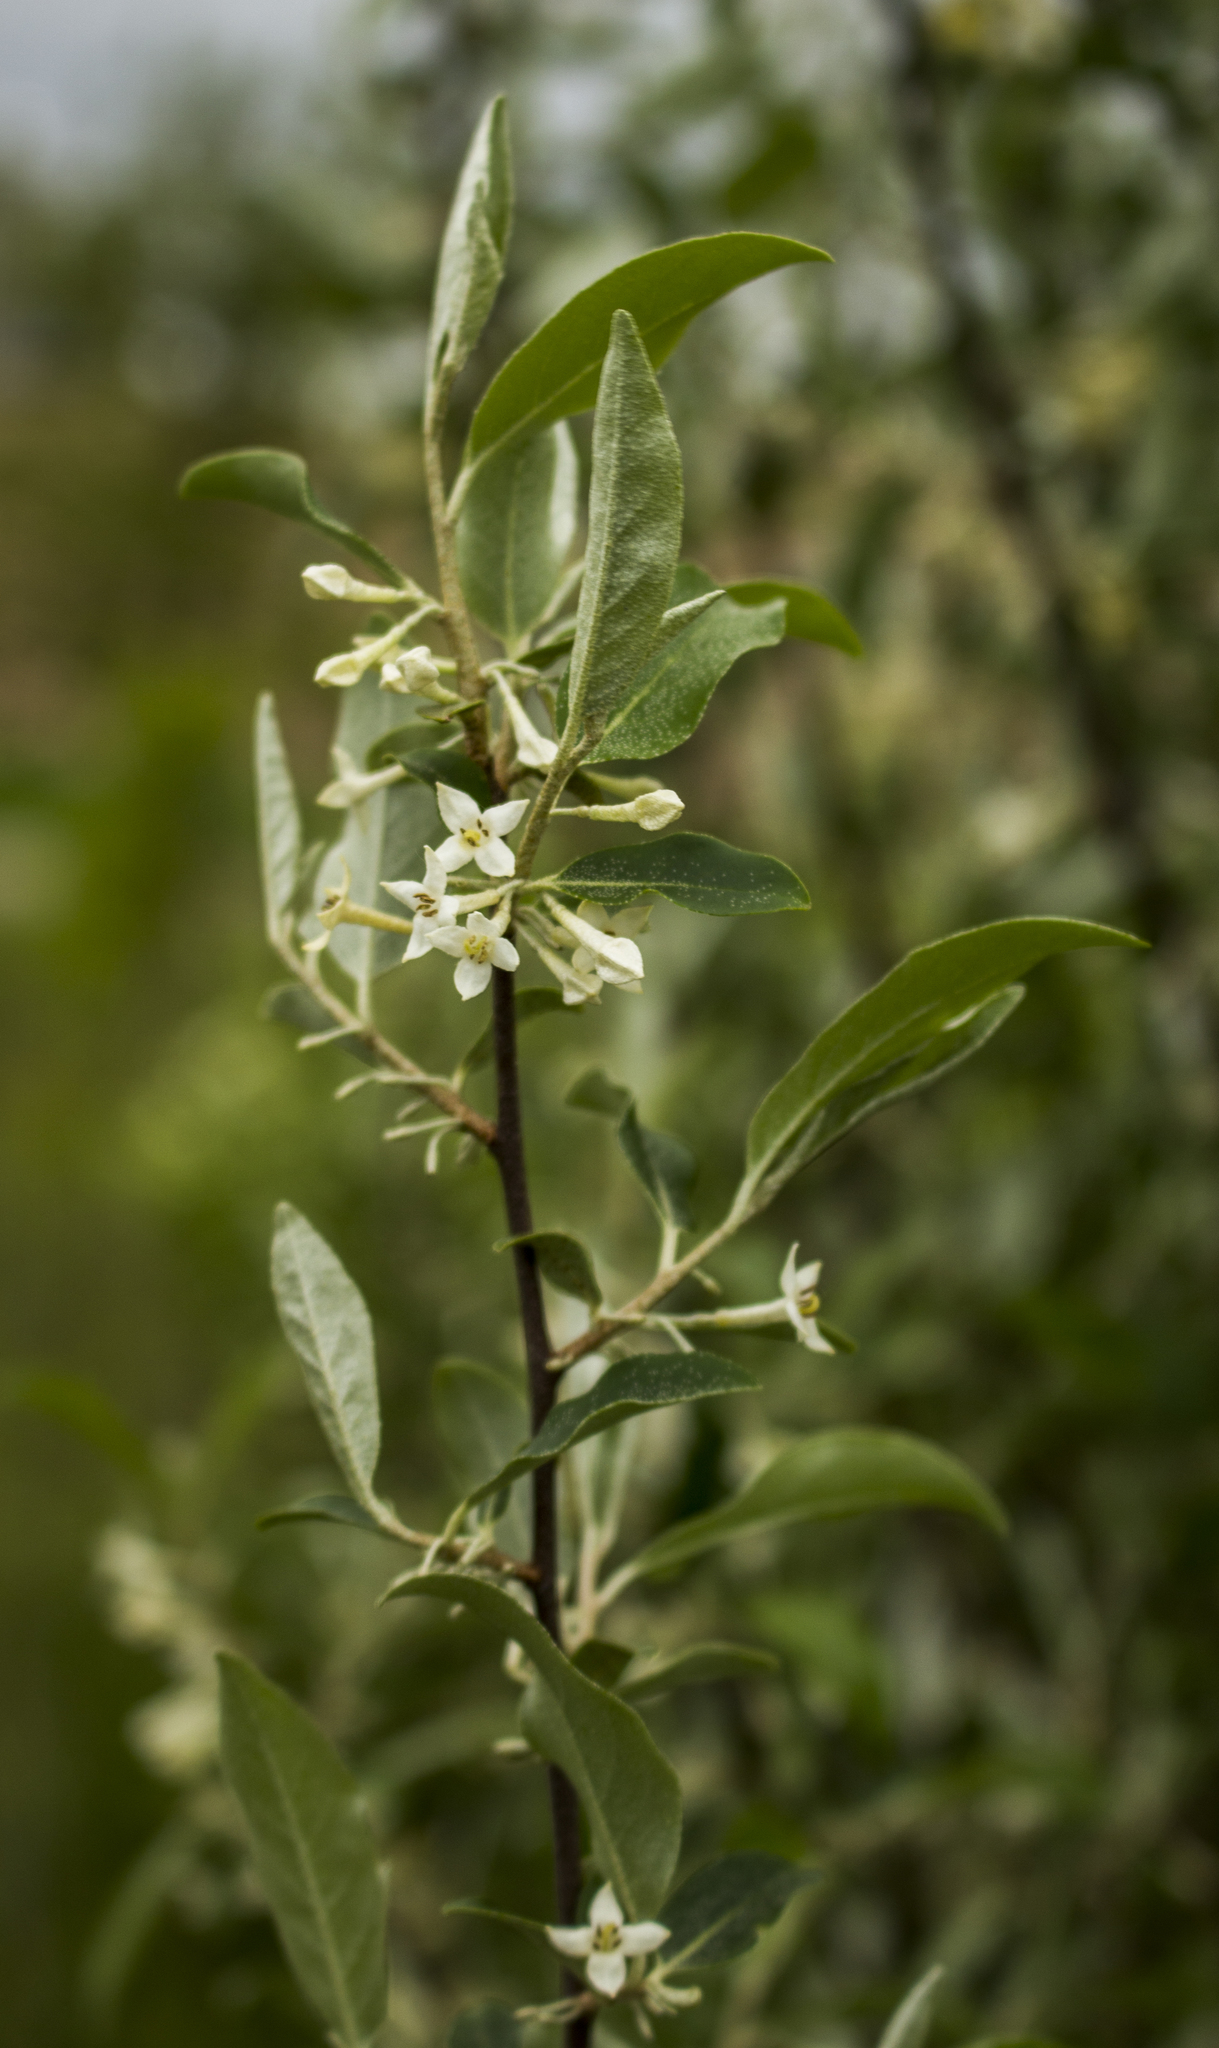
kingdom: Plantae
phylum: Tracheophyta
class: Magnoliopsida
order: Rosales
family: Elaeagnaceae
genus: Elaeagnus
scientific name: Elaeagnus umbellata
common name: Autumn olive
